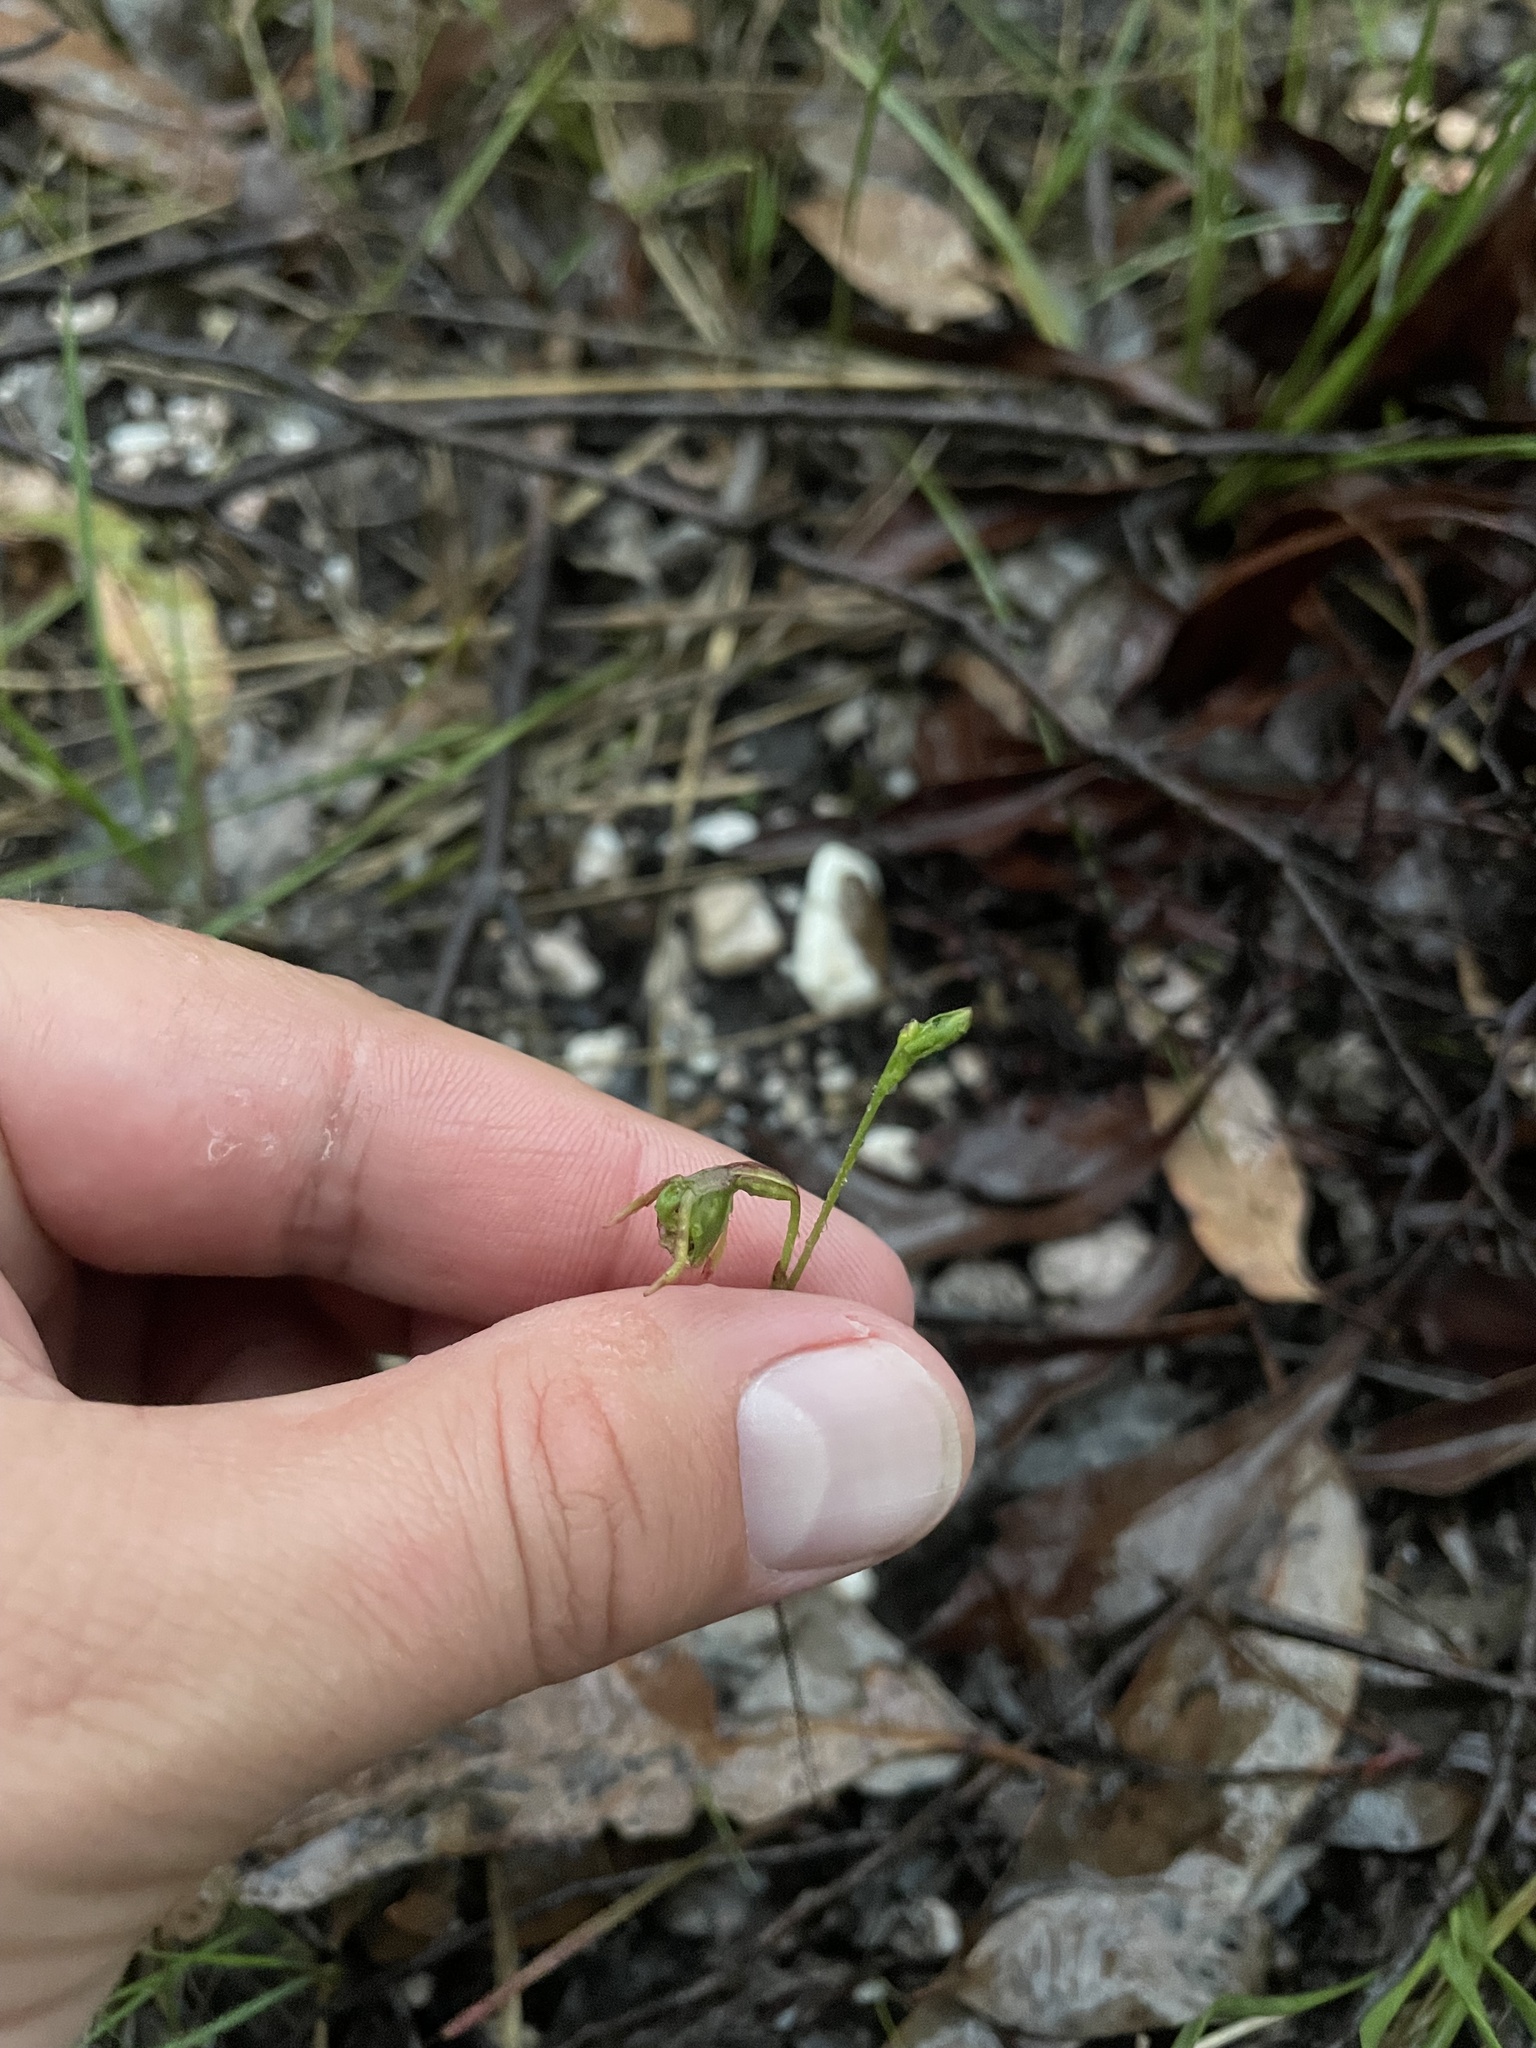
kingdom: Plantae
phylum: Tracheophyta
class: Liliopsida
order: Asparagales
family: Orchidaceae
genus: Caleana
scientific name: Caleana minor
